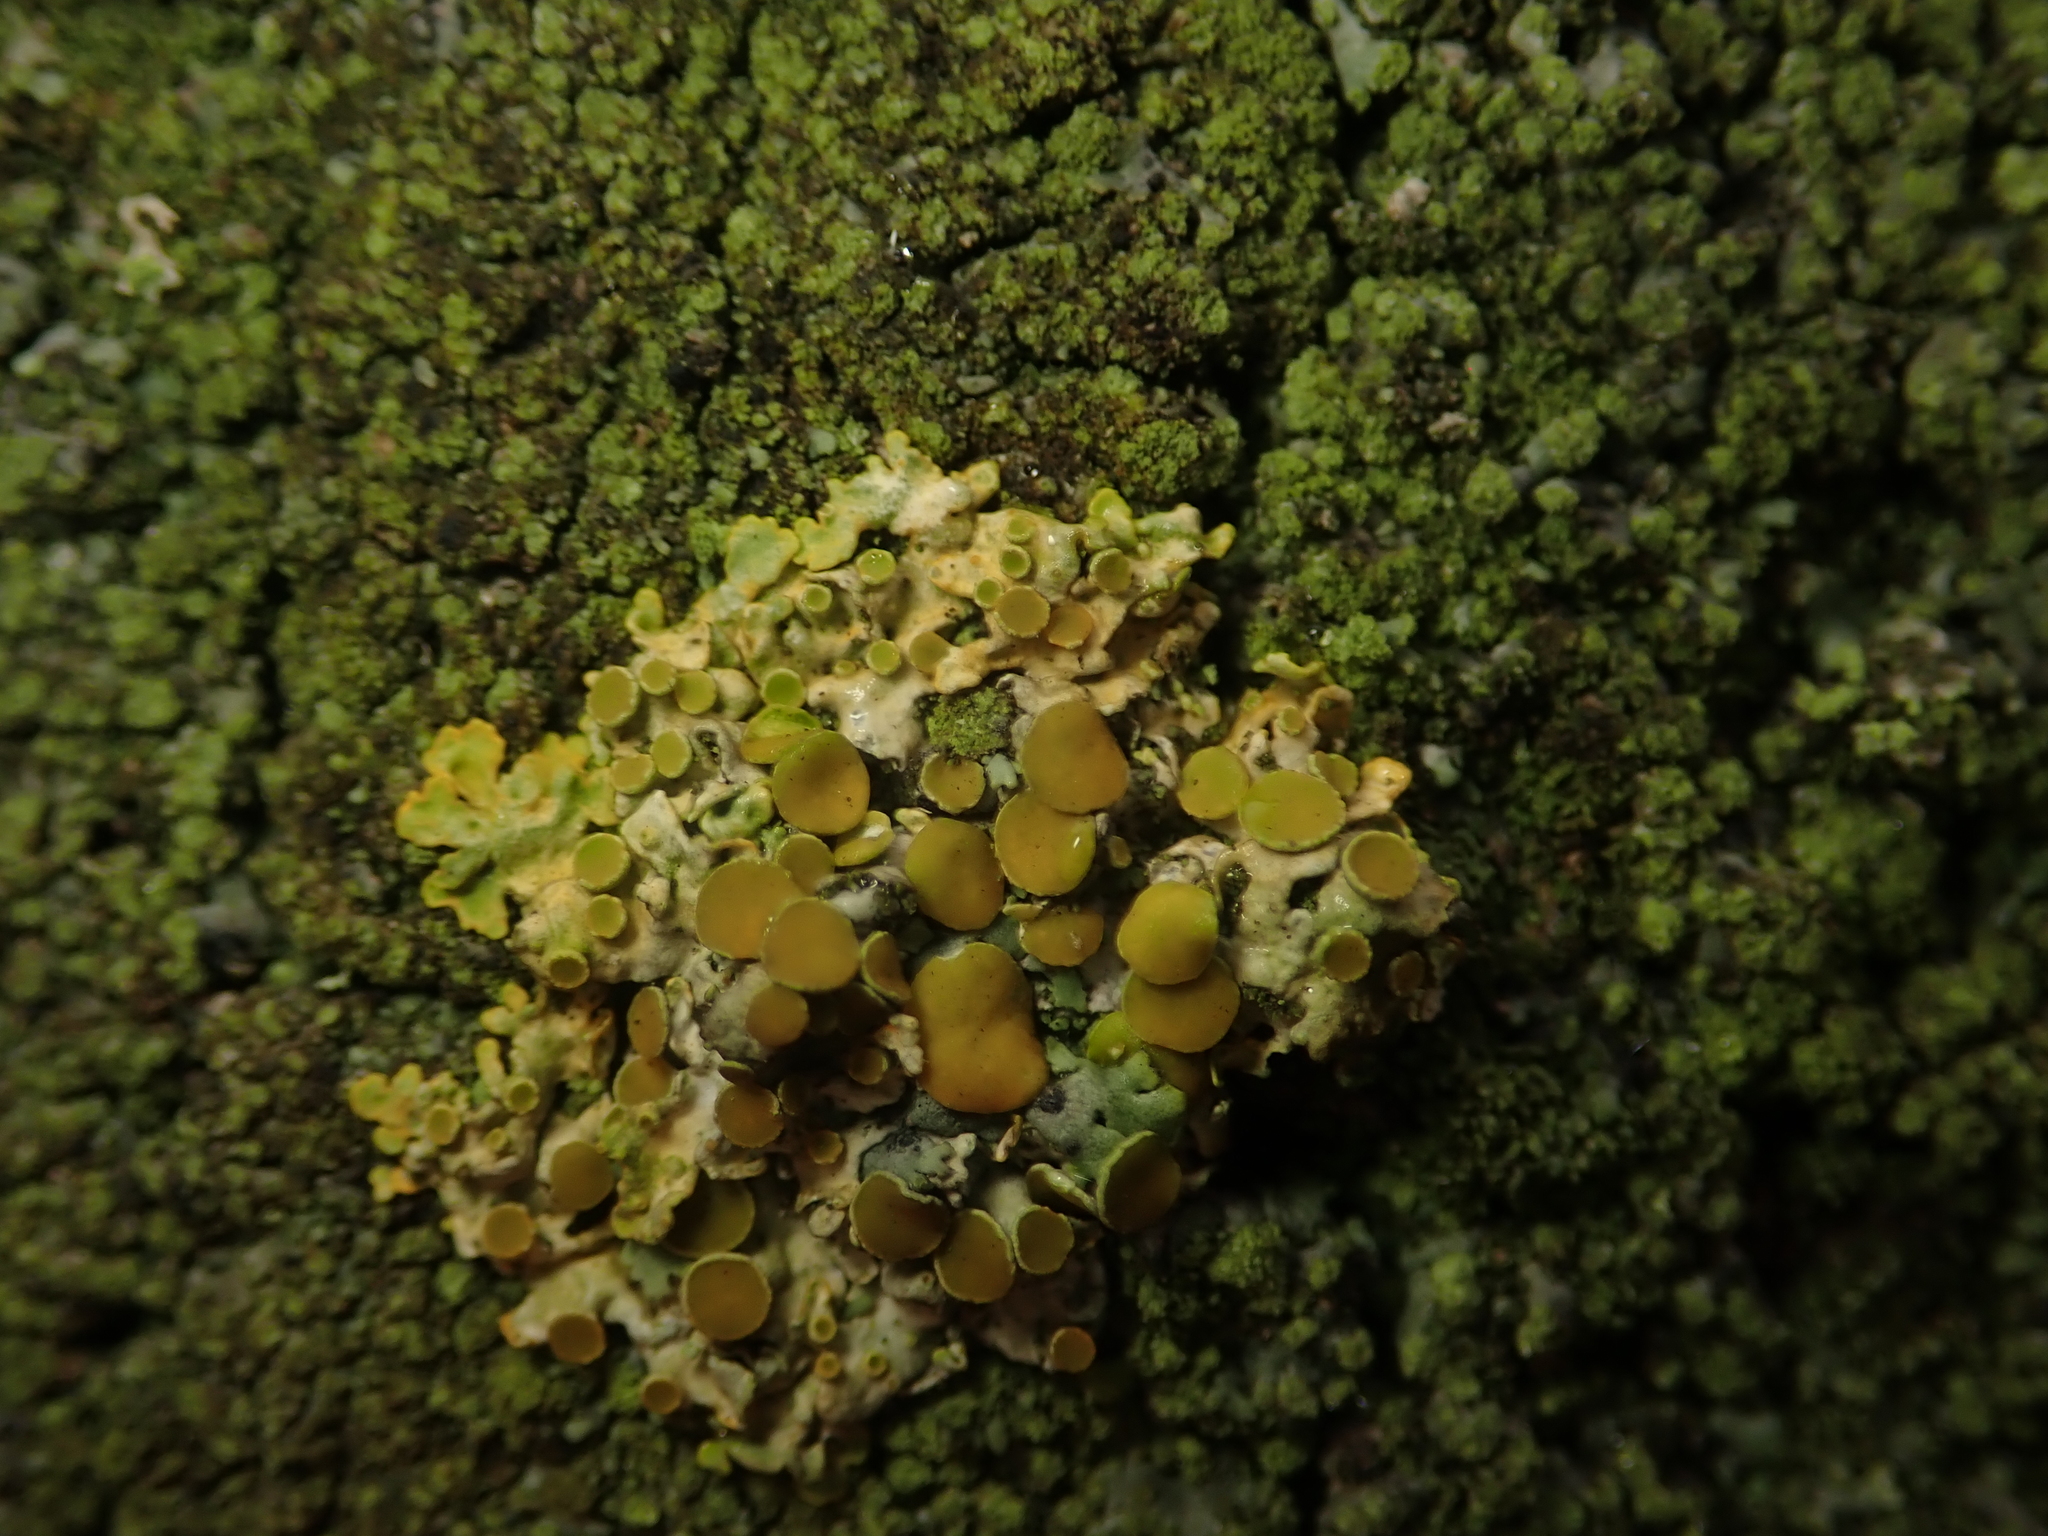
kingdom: Fungi
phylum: Ascomycota
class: Lecanoromycetes
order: Teloschistales
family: Teloschistaceae
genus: Xanthoria
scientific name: Xanthoria parietina
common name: Common orange lichen
